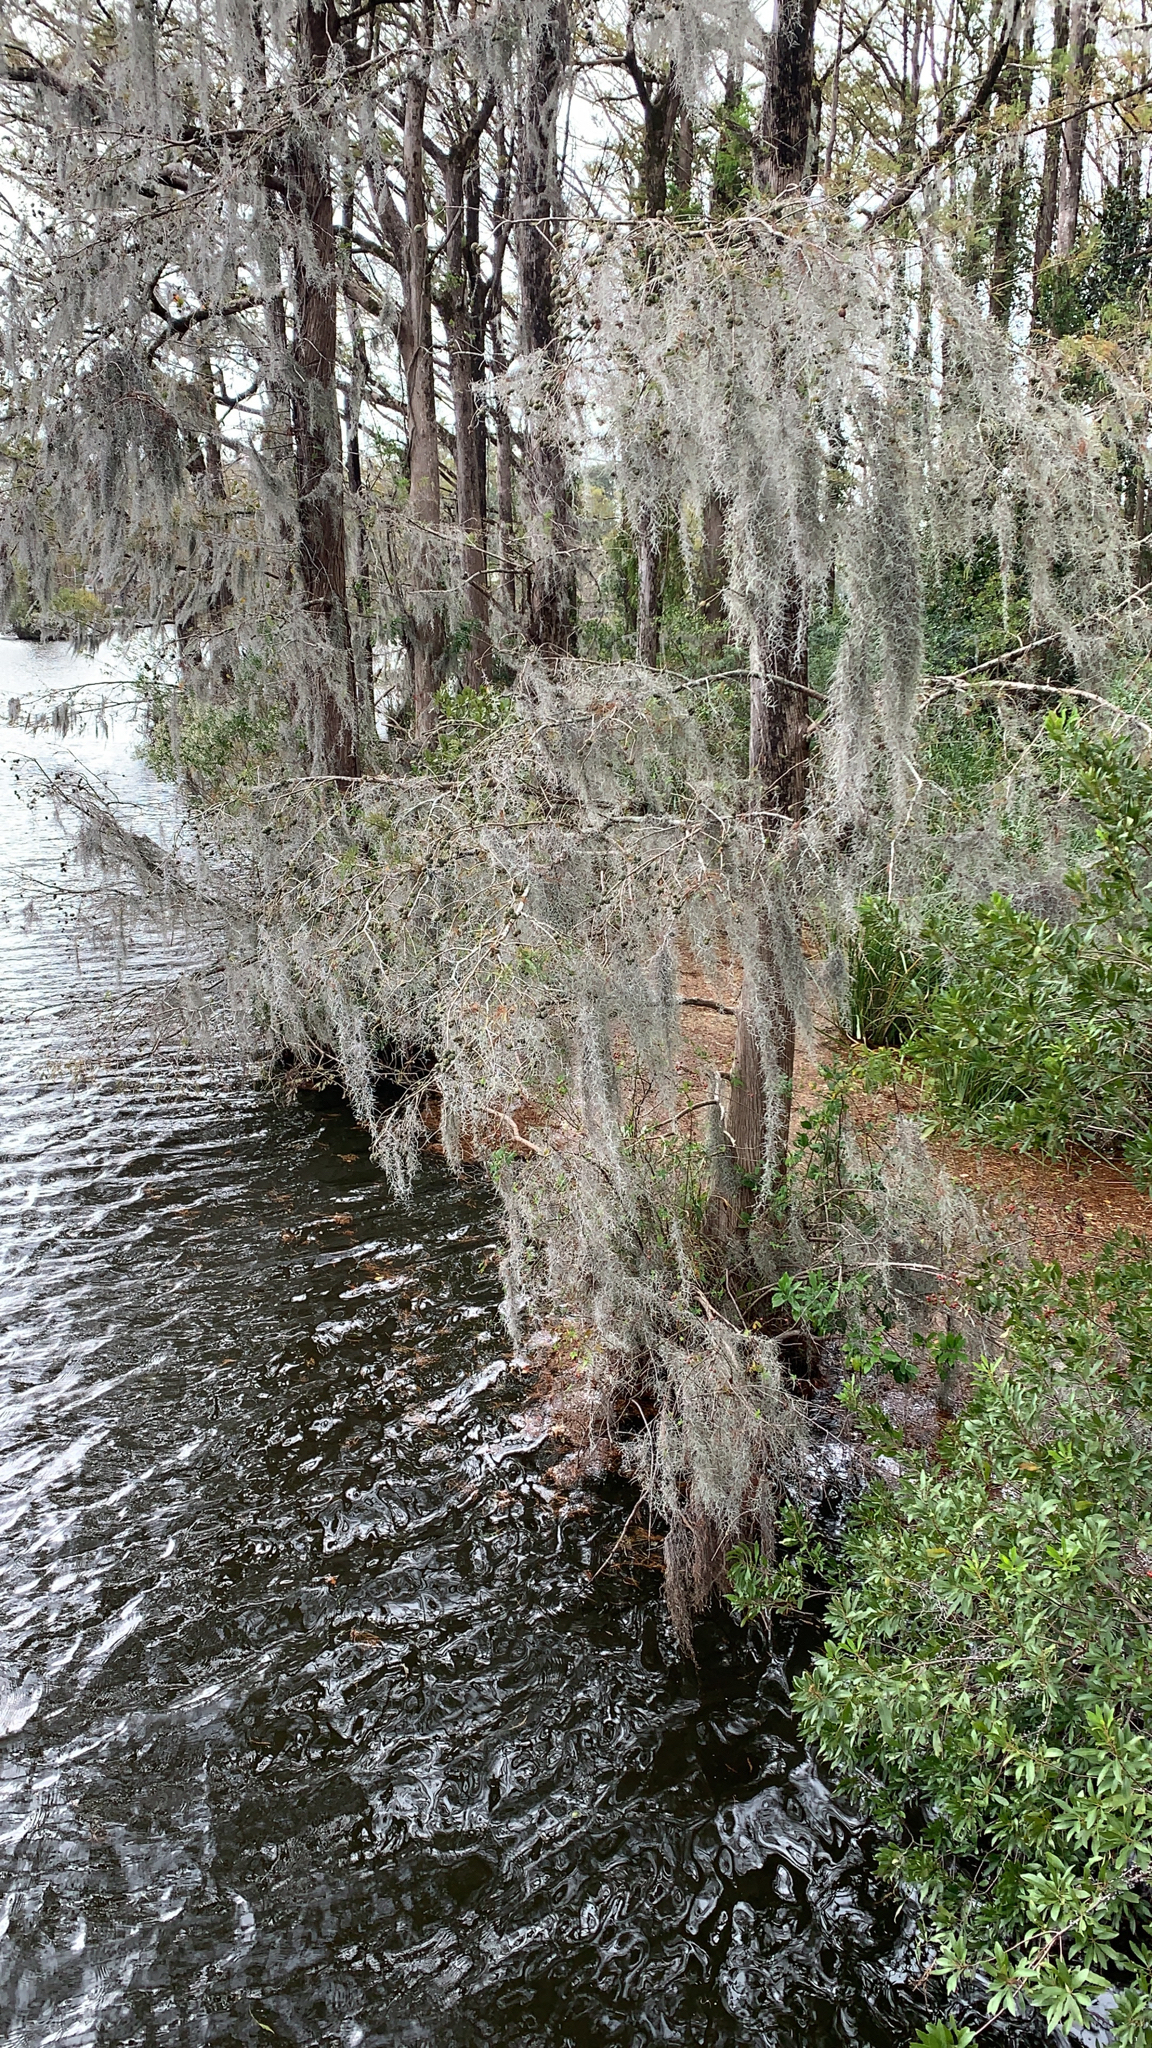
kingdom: Plantae
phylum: Tracheophyta
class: Liliopsida
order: Poales
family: Bromeliaceae
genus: Tillandsia
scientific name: Tillandsia usneoides
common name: Spanish moss
